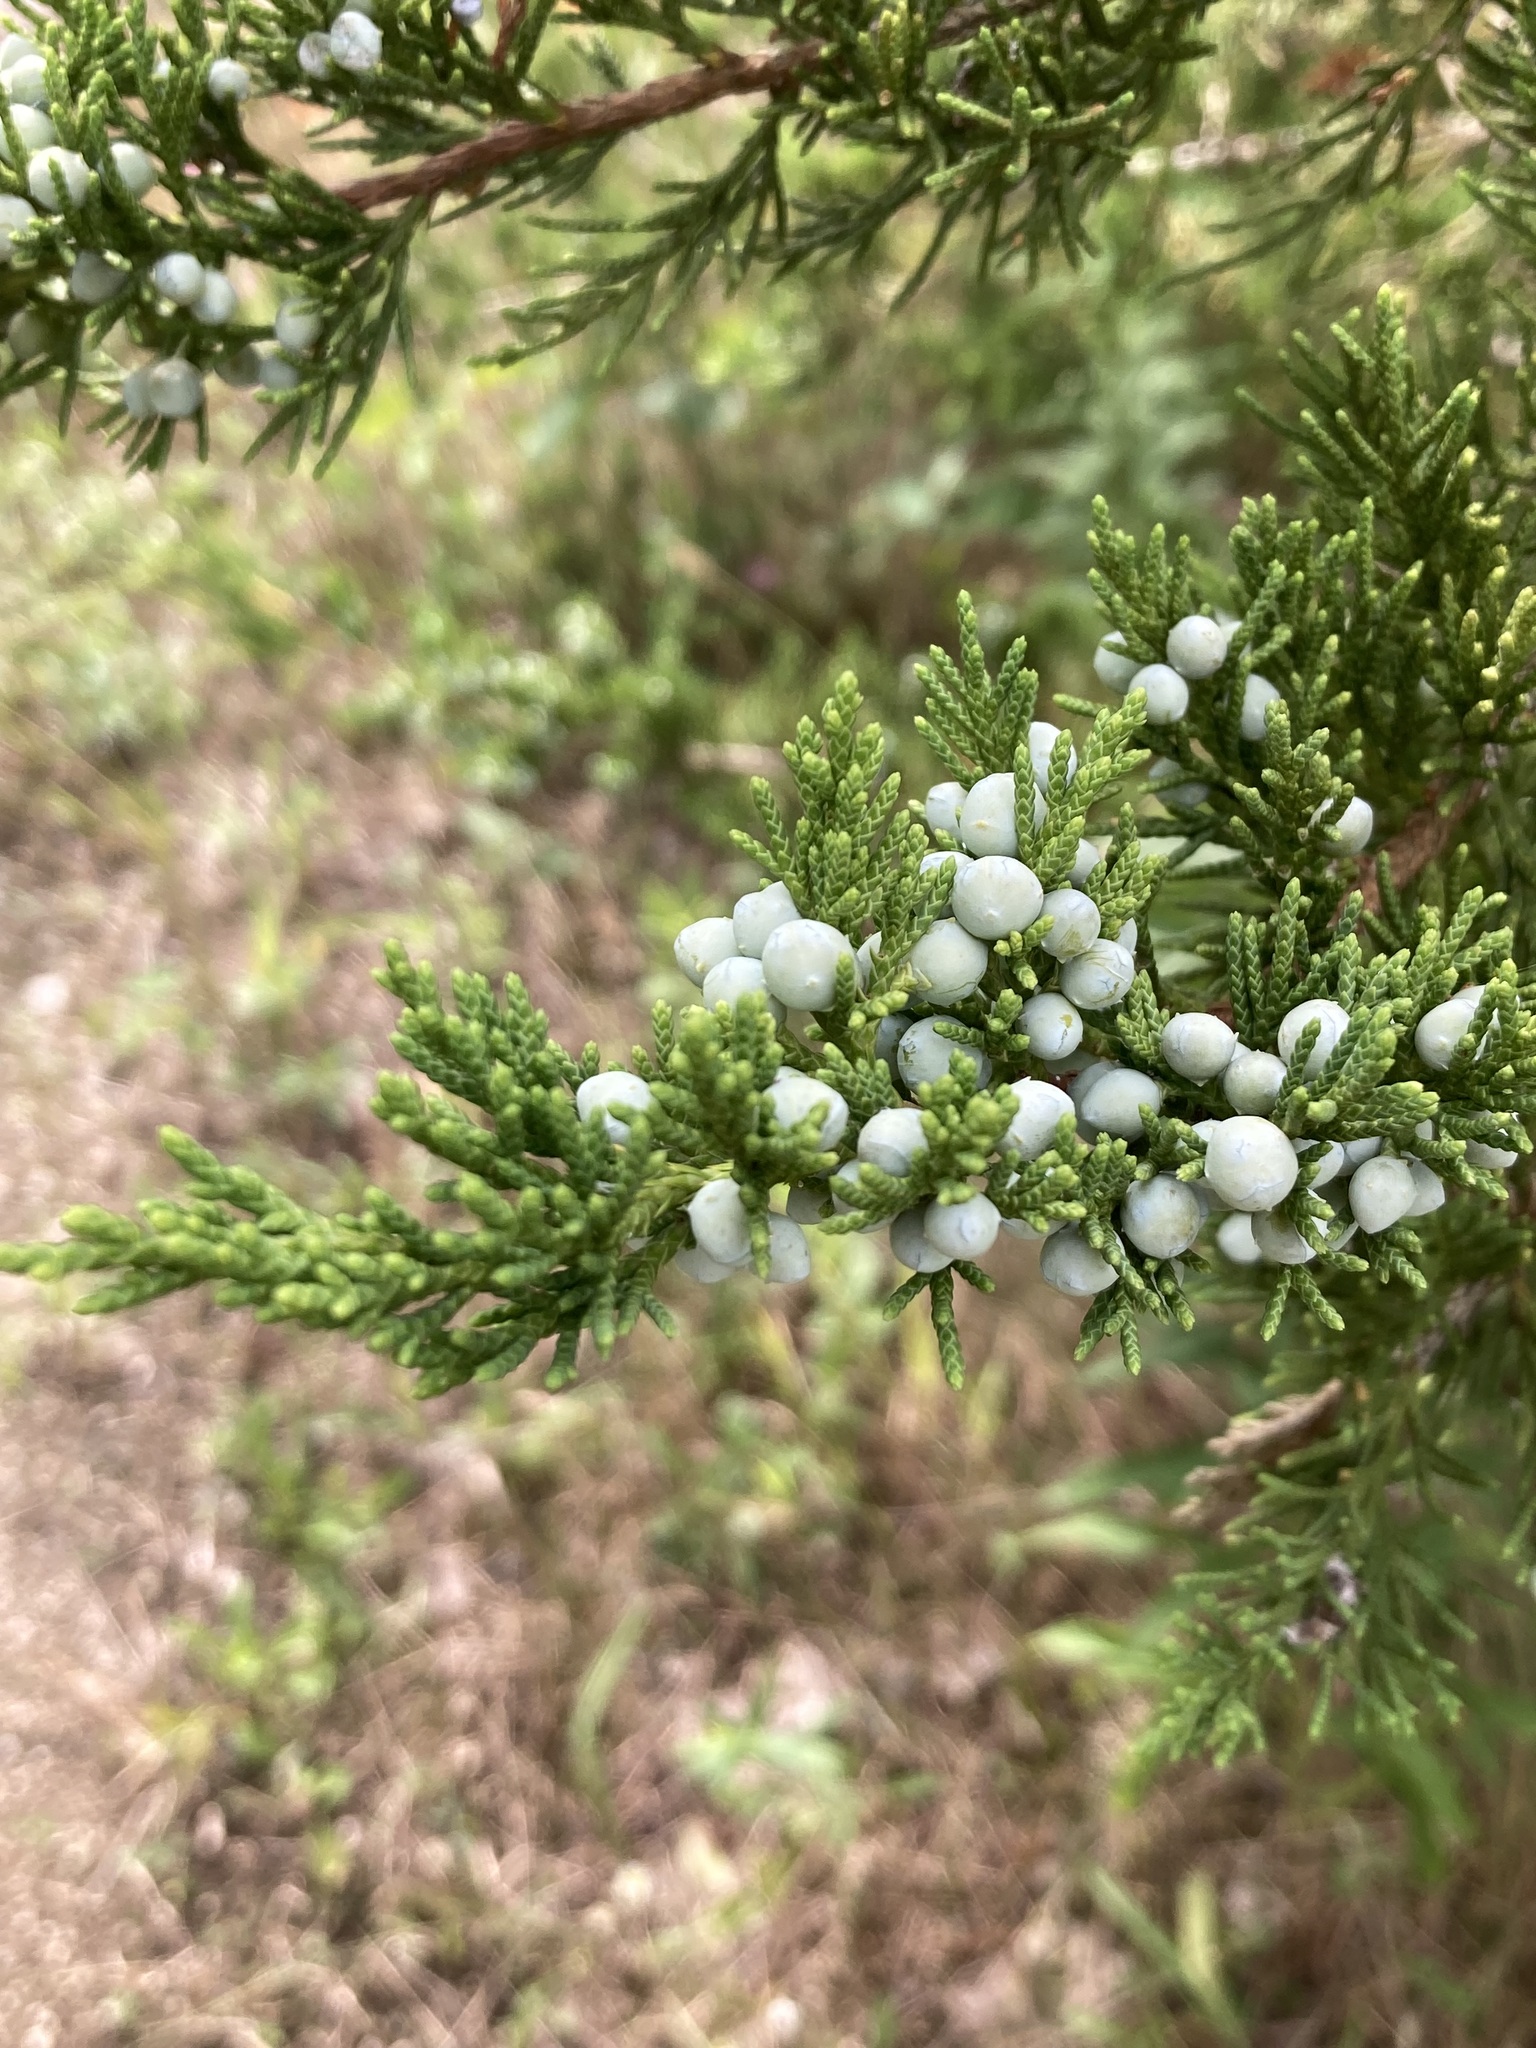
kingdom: Plantae
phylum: Tracheophyta
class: Pinopsida
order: Pinales
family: Cupressaceae
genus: Juniperus
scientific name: Juniperus virginiana
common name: Red juniper
